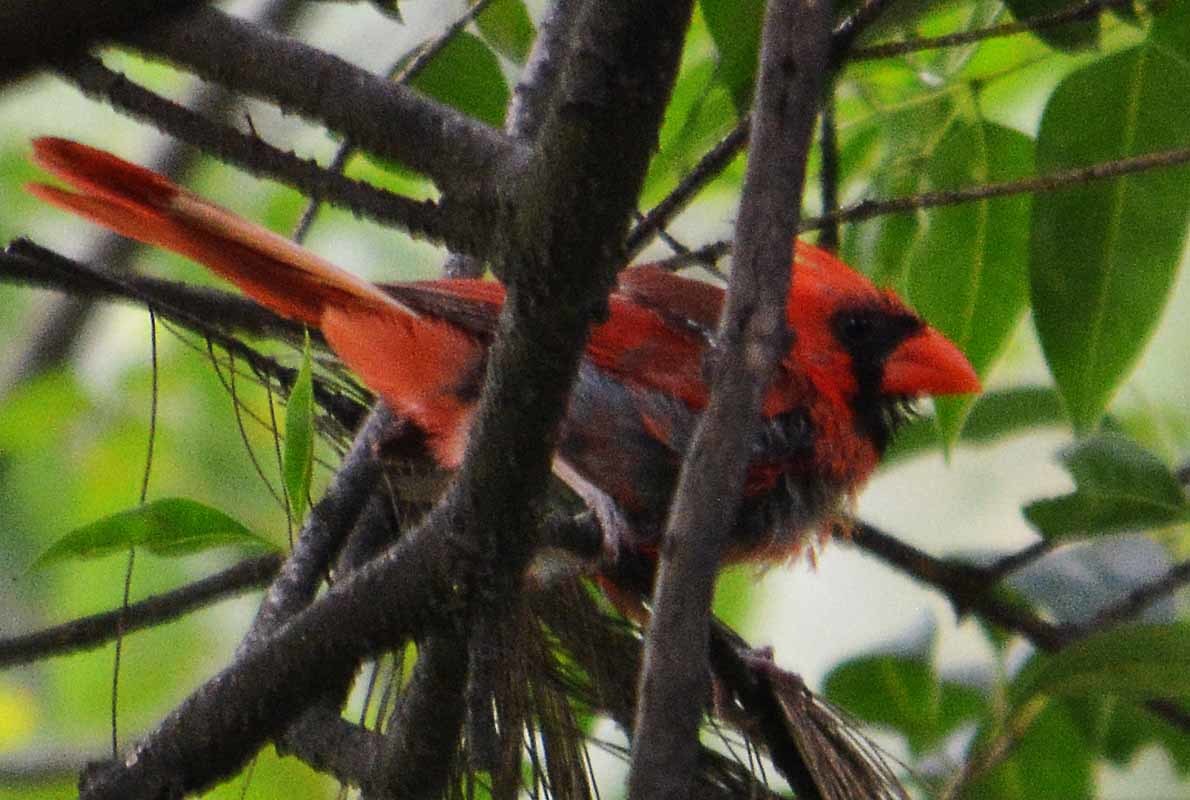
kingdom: Animalia
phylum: Chordata
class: Aves
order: Passeriformes
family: Cardinalidae
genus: Cardinalis
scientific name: Cardinalis cardinalis
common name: Northern cardinal
